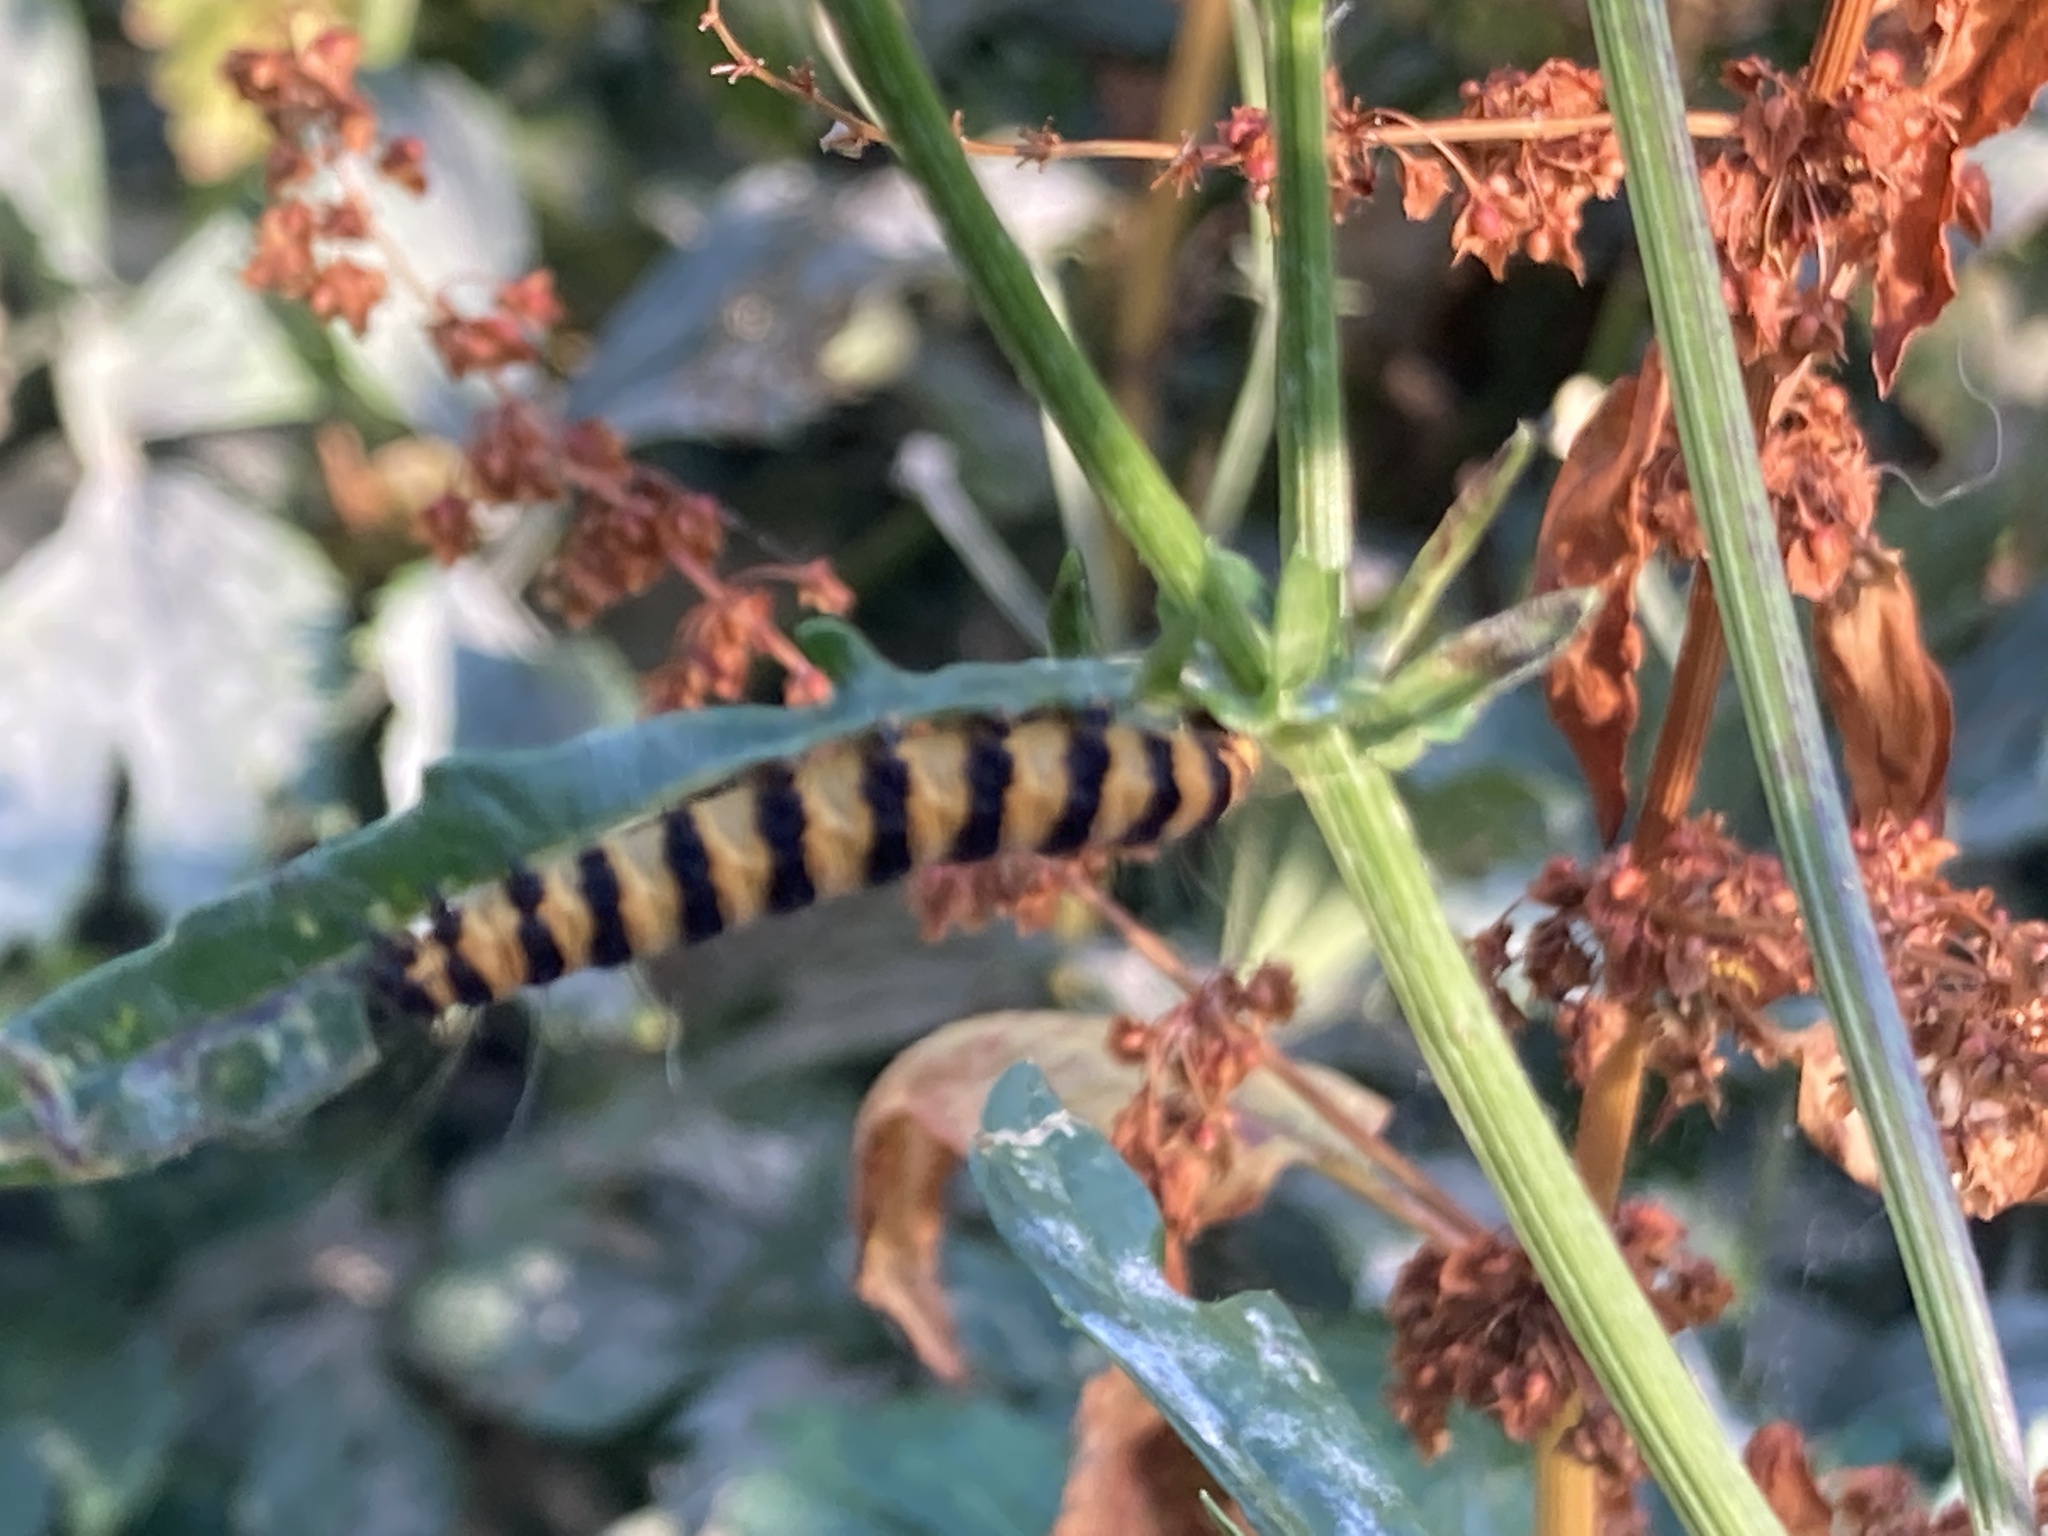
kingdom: Animalia
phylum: Arthropoda
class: Insecta
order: Lepidoptera
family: Erebidae
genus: Tyria
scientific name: Tyria jacobaeae
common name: Cinnabar
